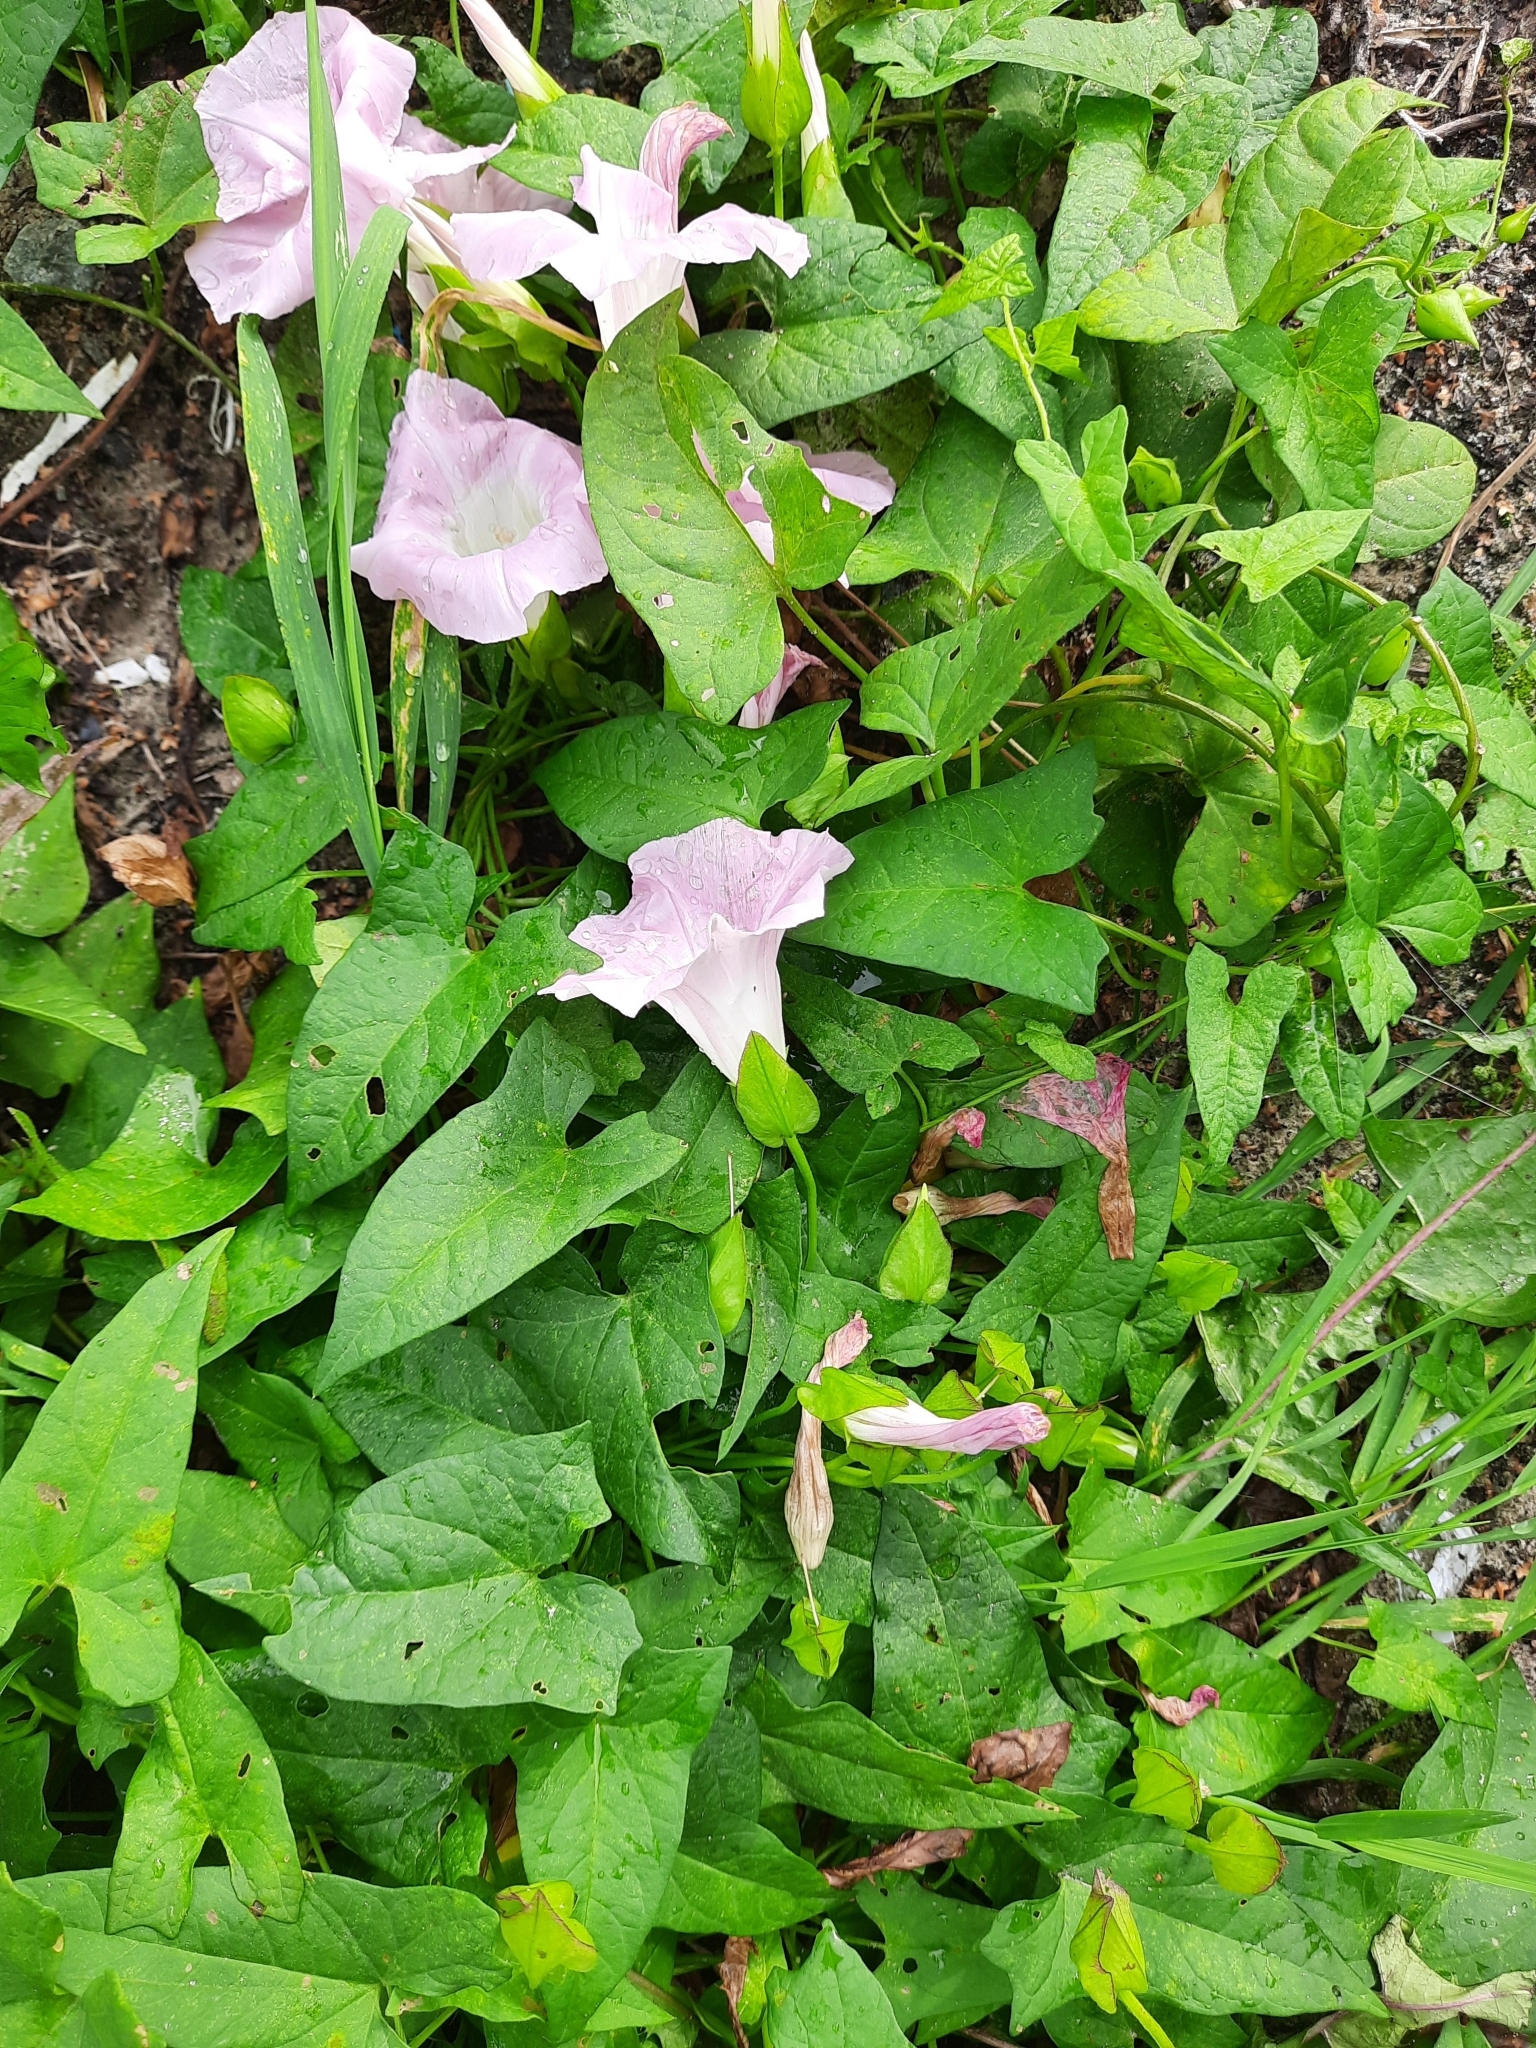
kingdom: Plantae
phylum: Tracheophyta
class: Magnoliopsida
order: Solanales
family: Convolvulaceae
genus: Calystegia
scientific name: Calystegia sepium
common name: Hedge bindweed
